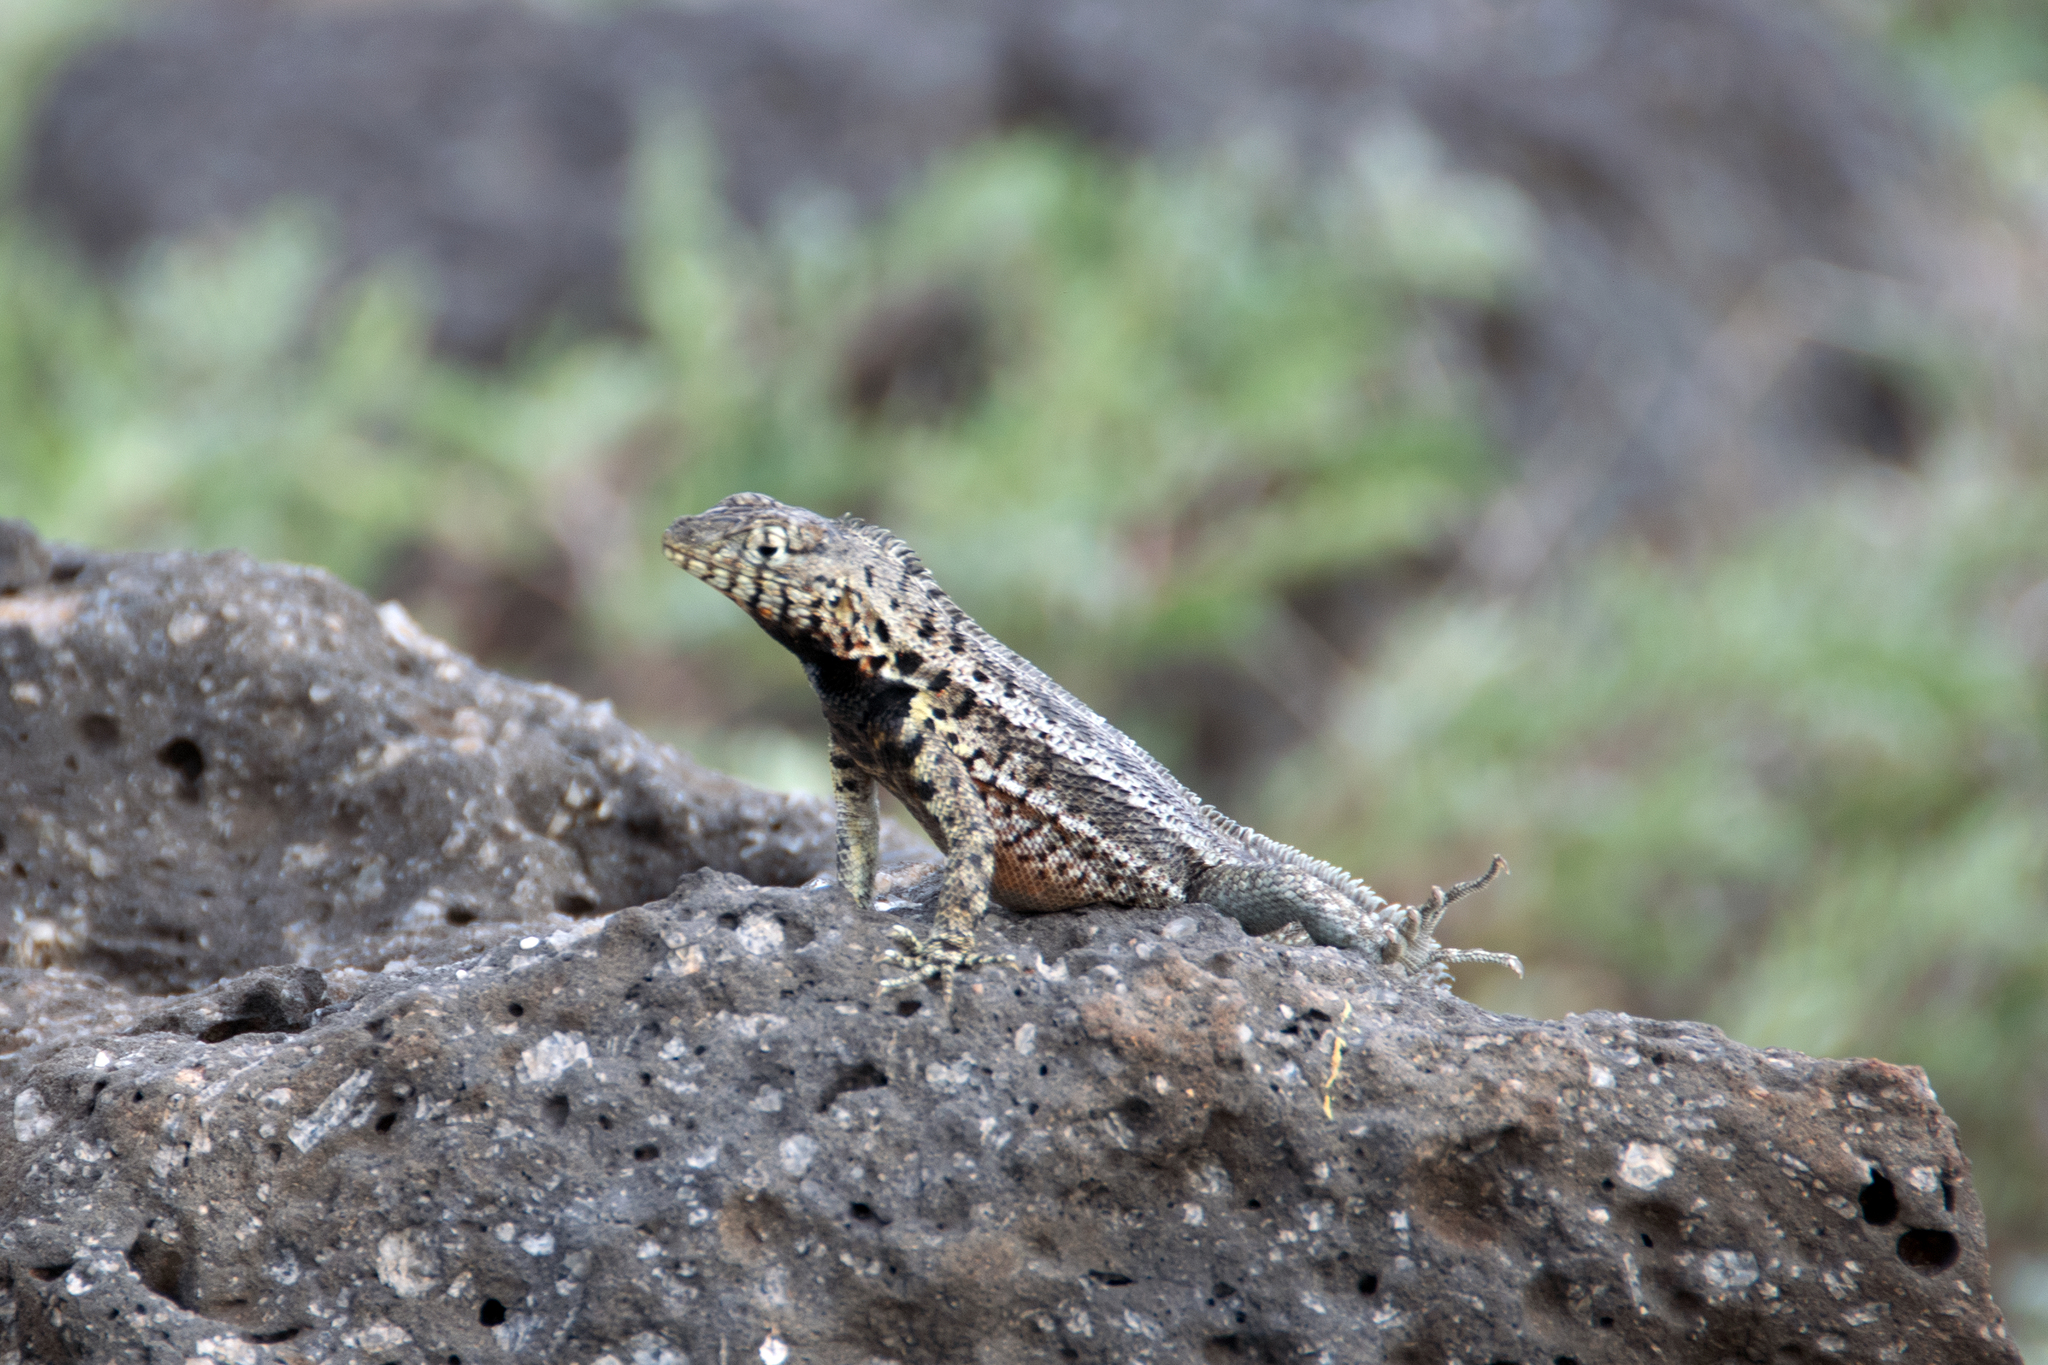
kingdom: Animalia
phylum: Chordata
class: Squamata
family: Tropiduridae
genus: Microlophus
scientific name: Microlophus indefatigabilis
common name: Galapagos lava lizard
